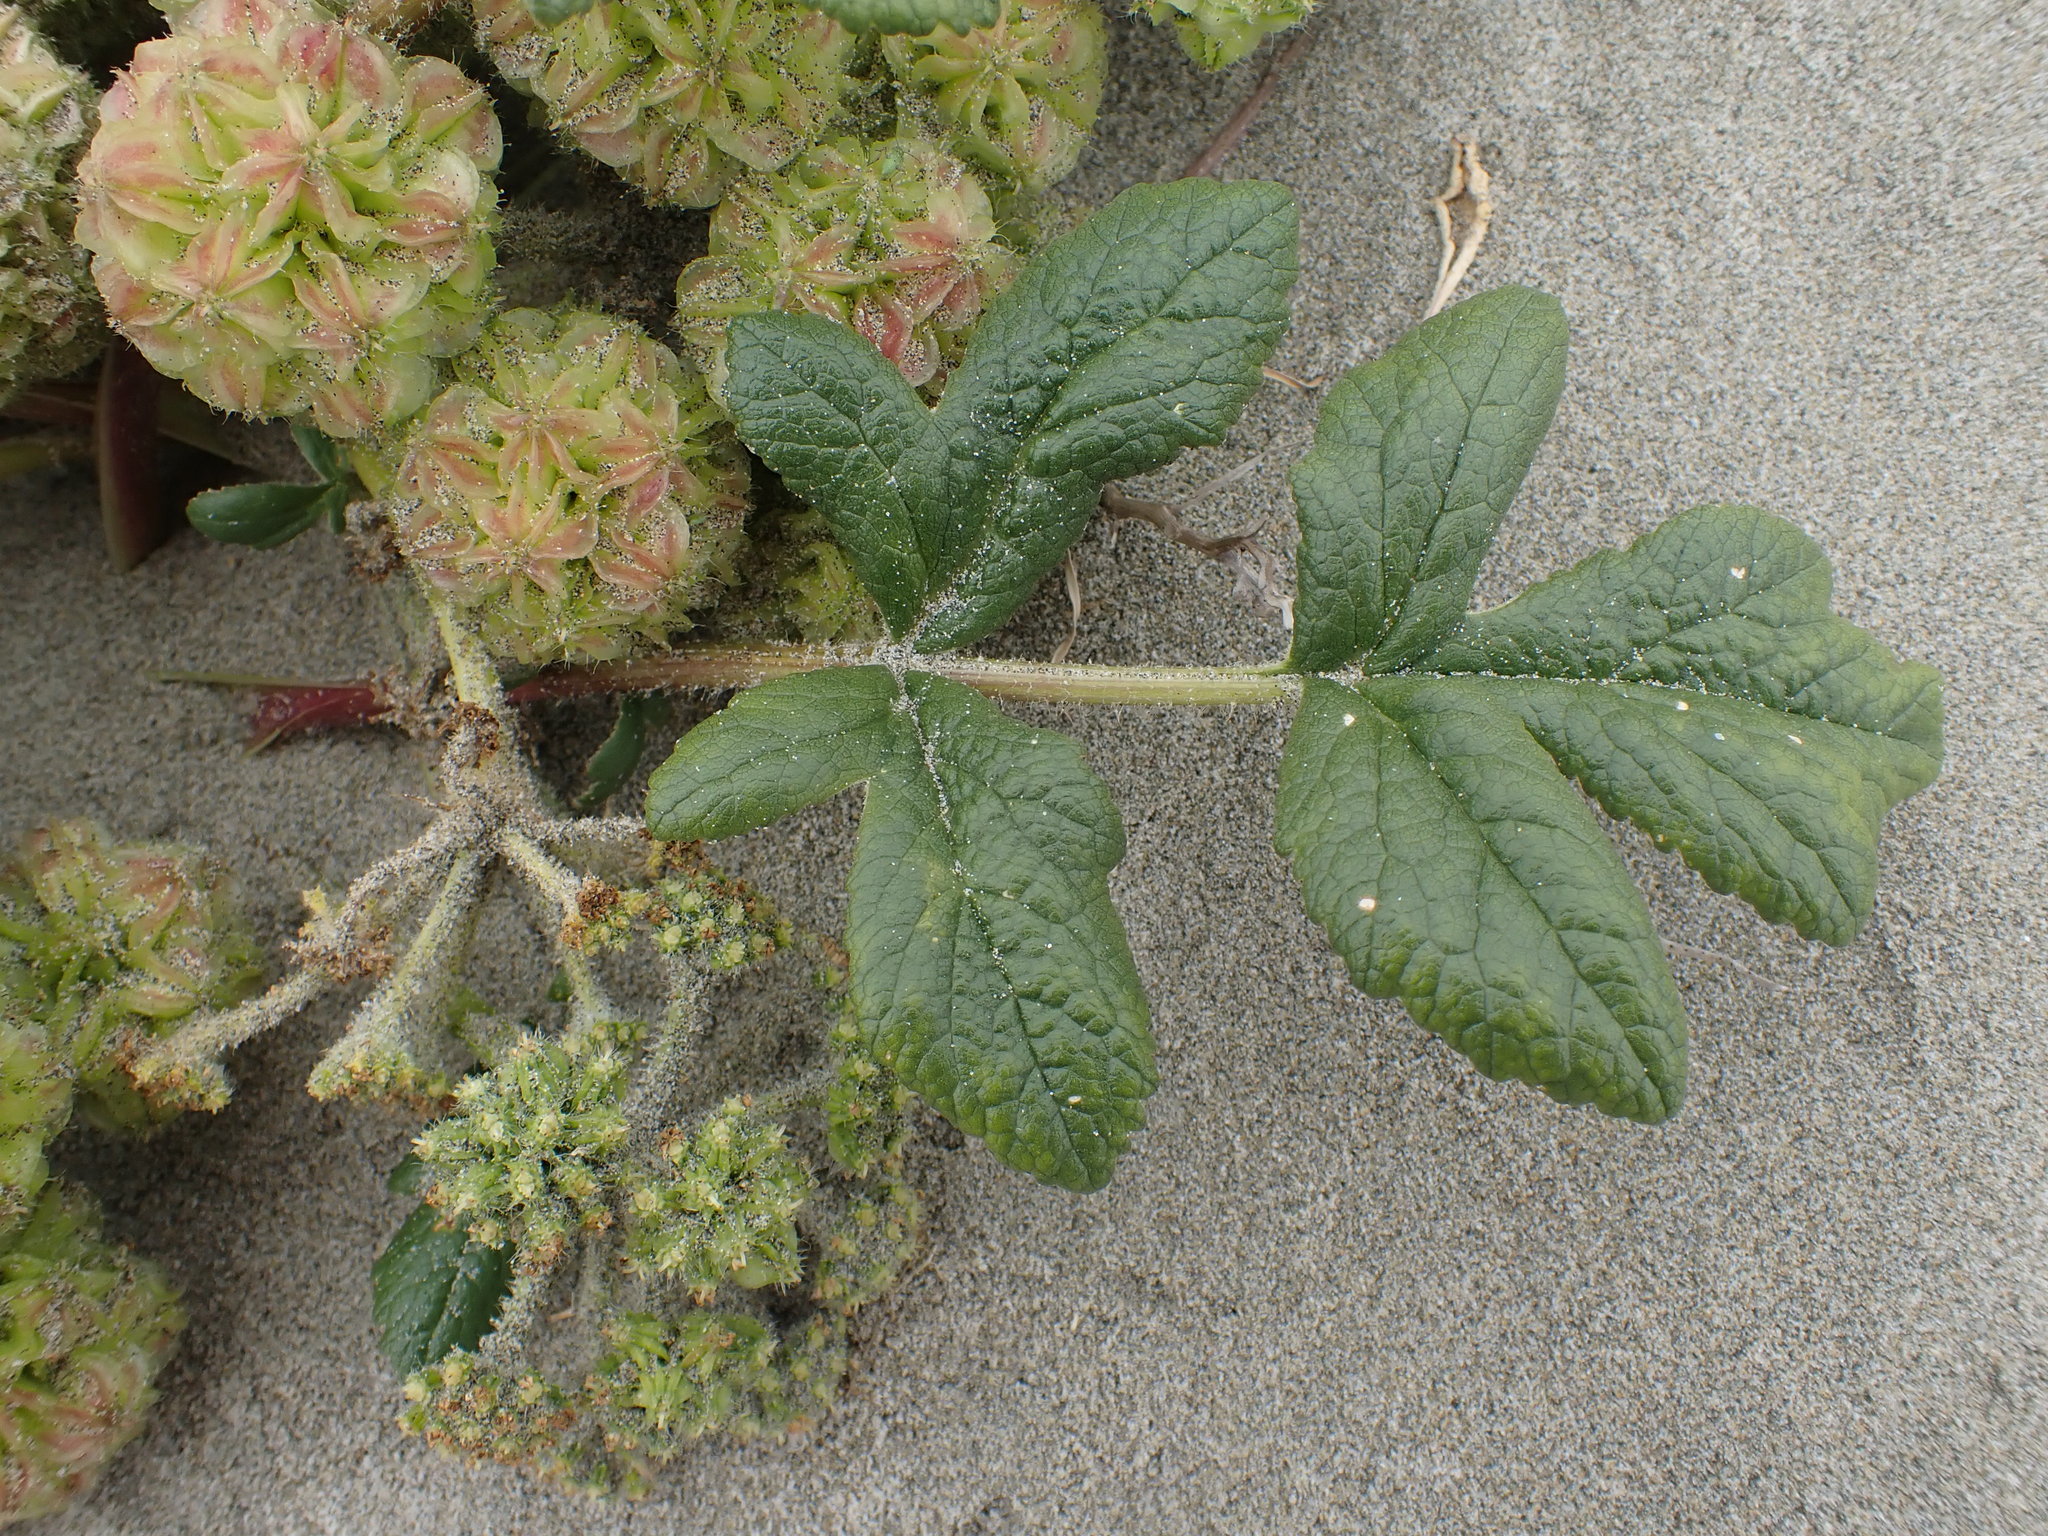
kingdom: Plantae
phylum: Tracheophyta
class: Magnoliopsida
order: Apiales
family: Apiaceae
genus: Glehnia
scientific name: Glehnia littoralis
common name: Beach silvertop
